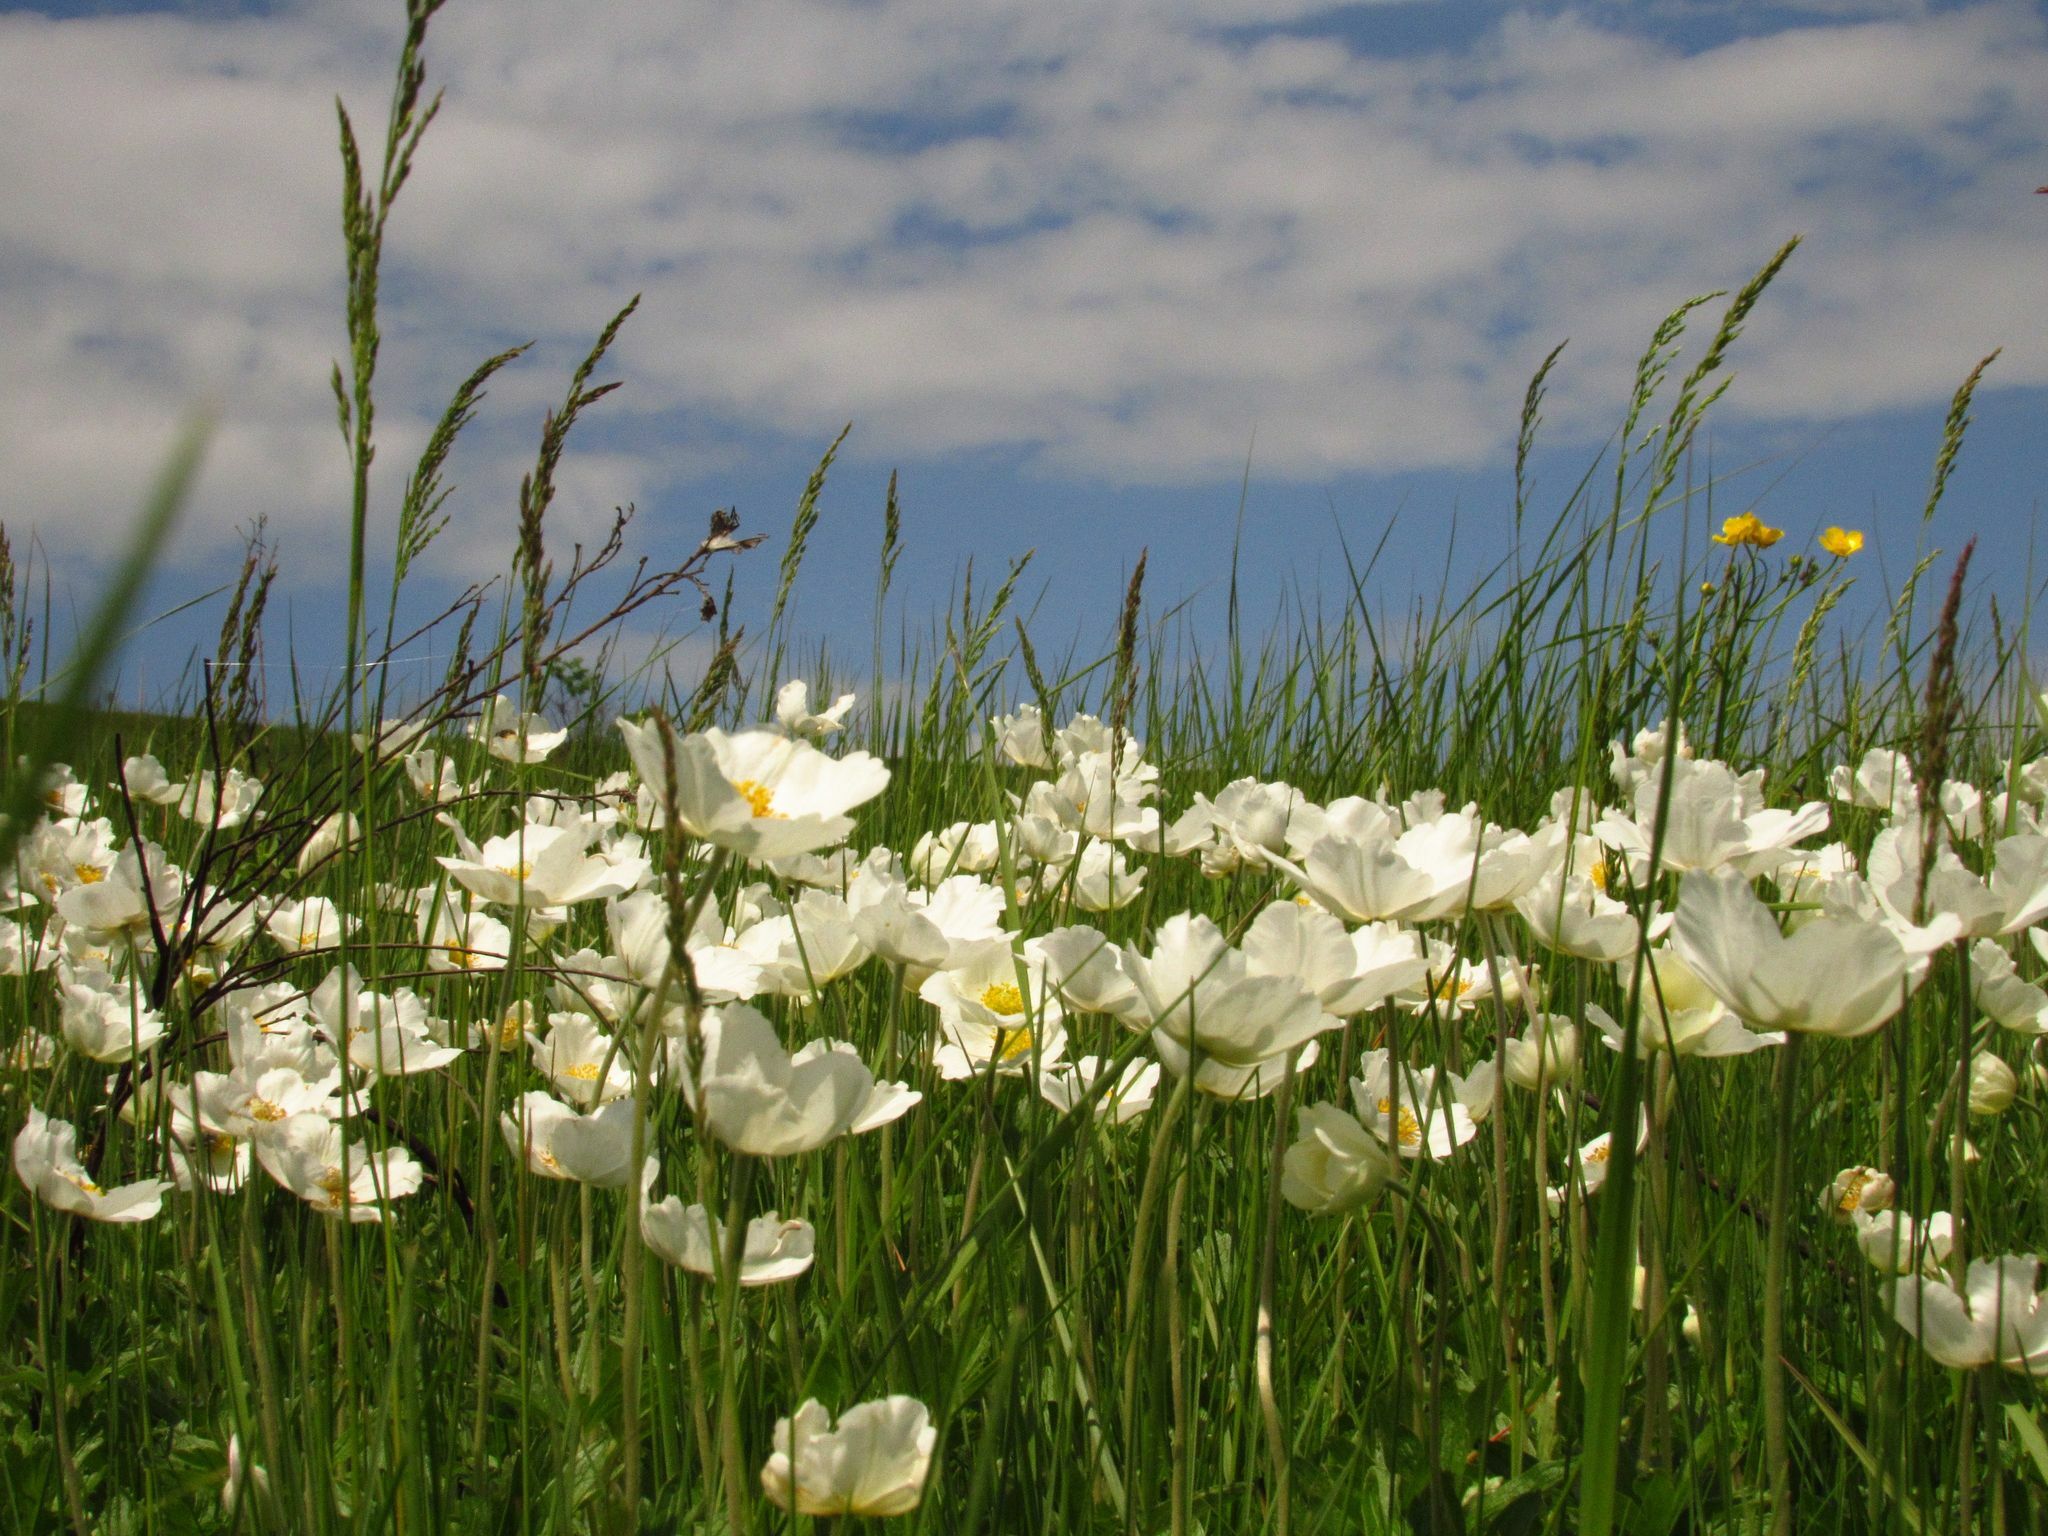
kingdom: Plantae
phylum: Tracheophyta
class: Magnoliopsida
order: Ranunculales
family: Ranunculaceae
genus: Anemone
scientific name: Anemone sylvestris
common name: Snowdrop anemone
